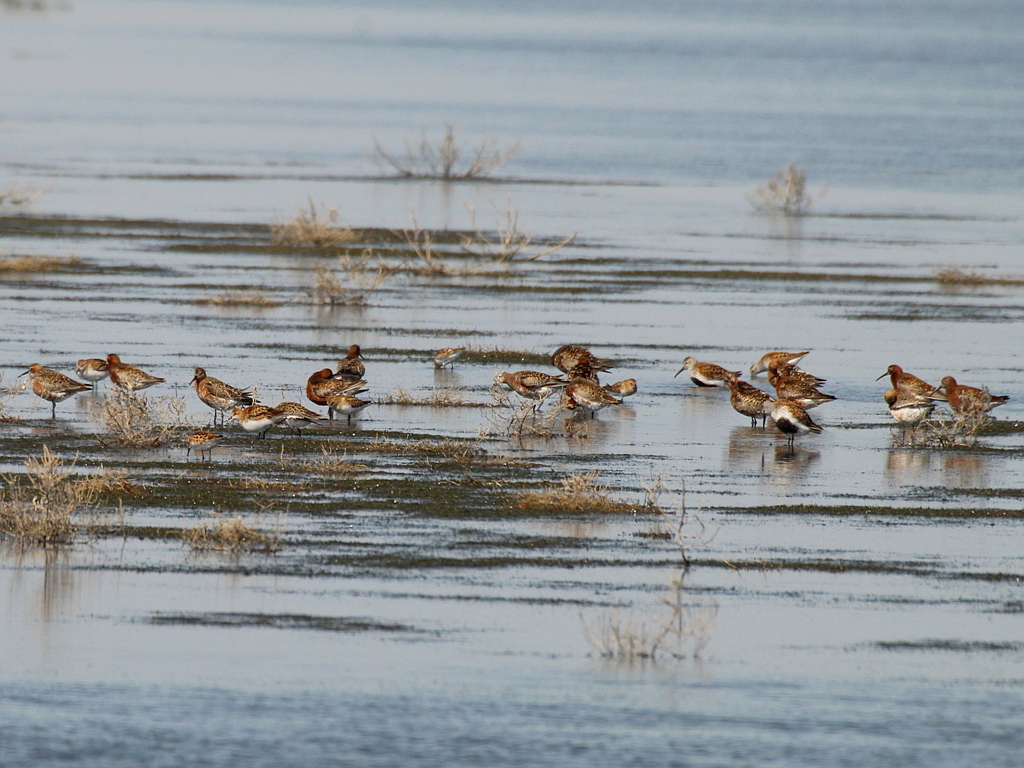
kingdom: Animalia
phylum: Chordata
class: Aves
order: Charadriiformes
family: Scolopacidae
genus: Calidris
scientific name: Calidris ferruginea
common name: Curlew sandpiper
